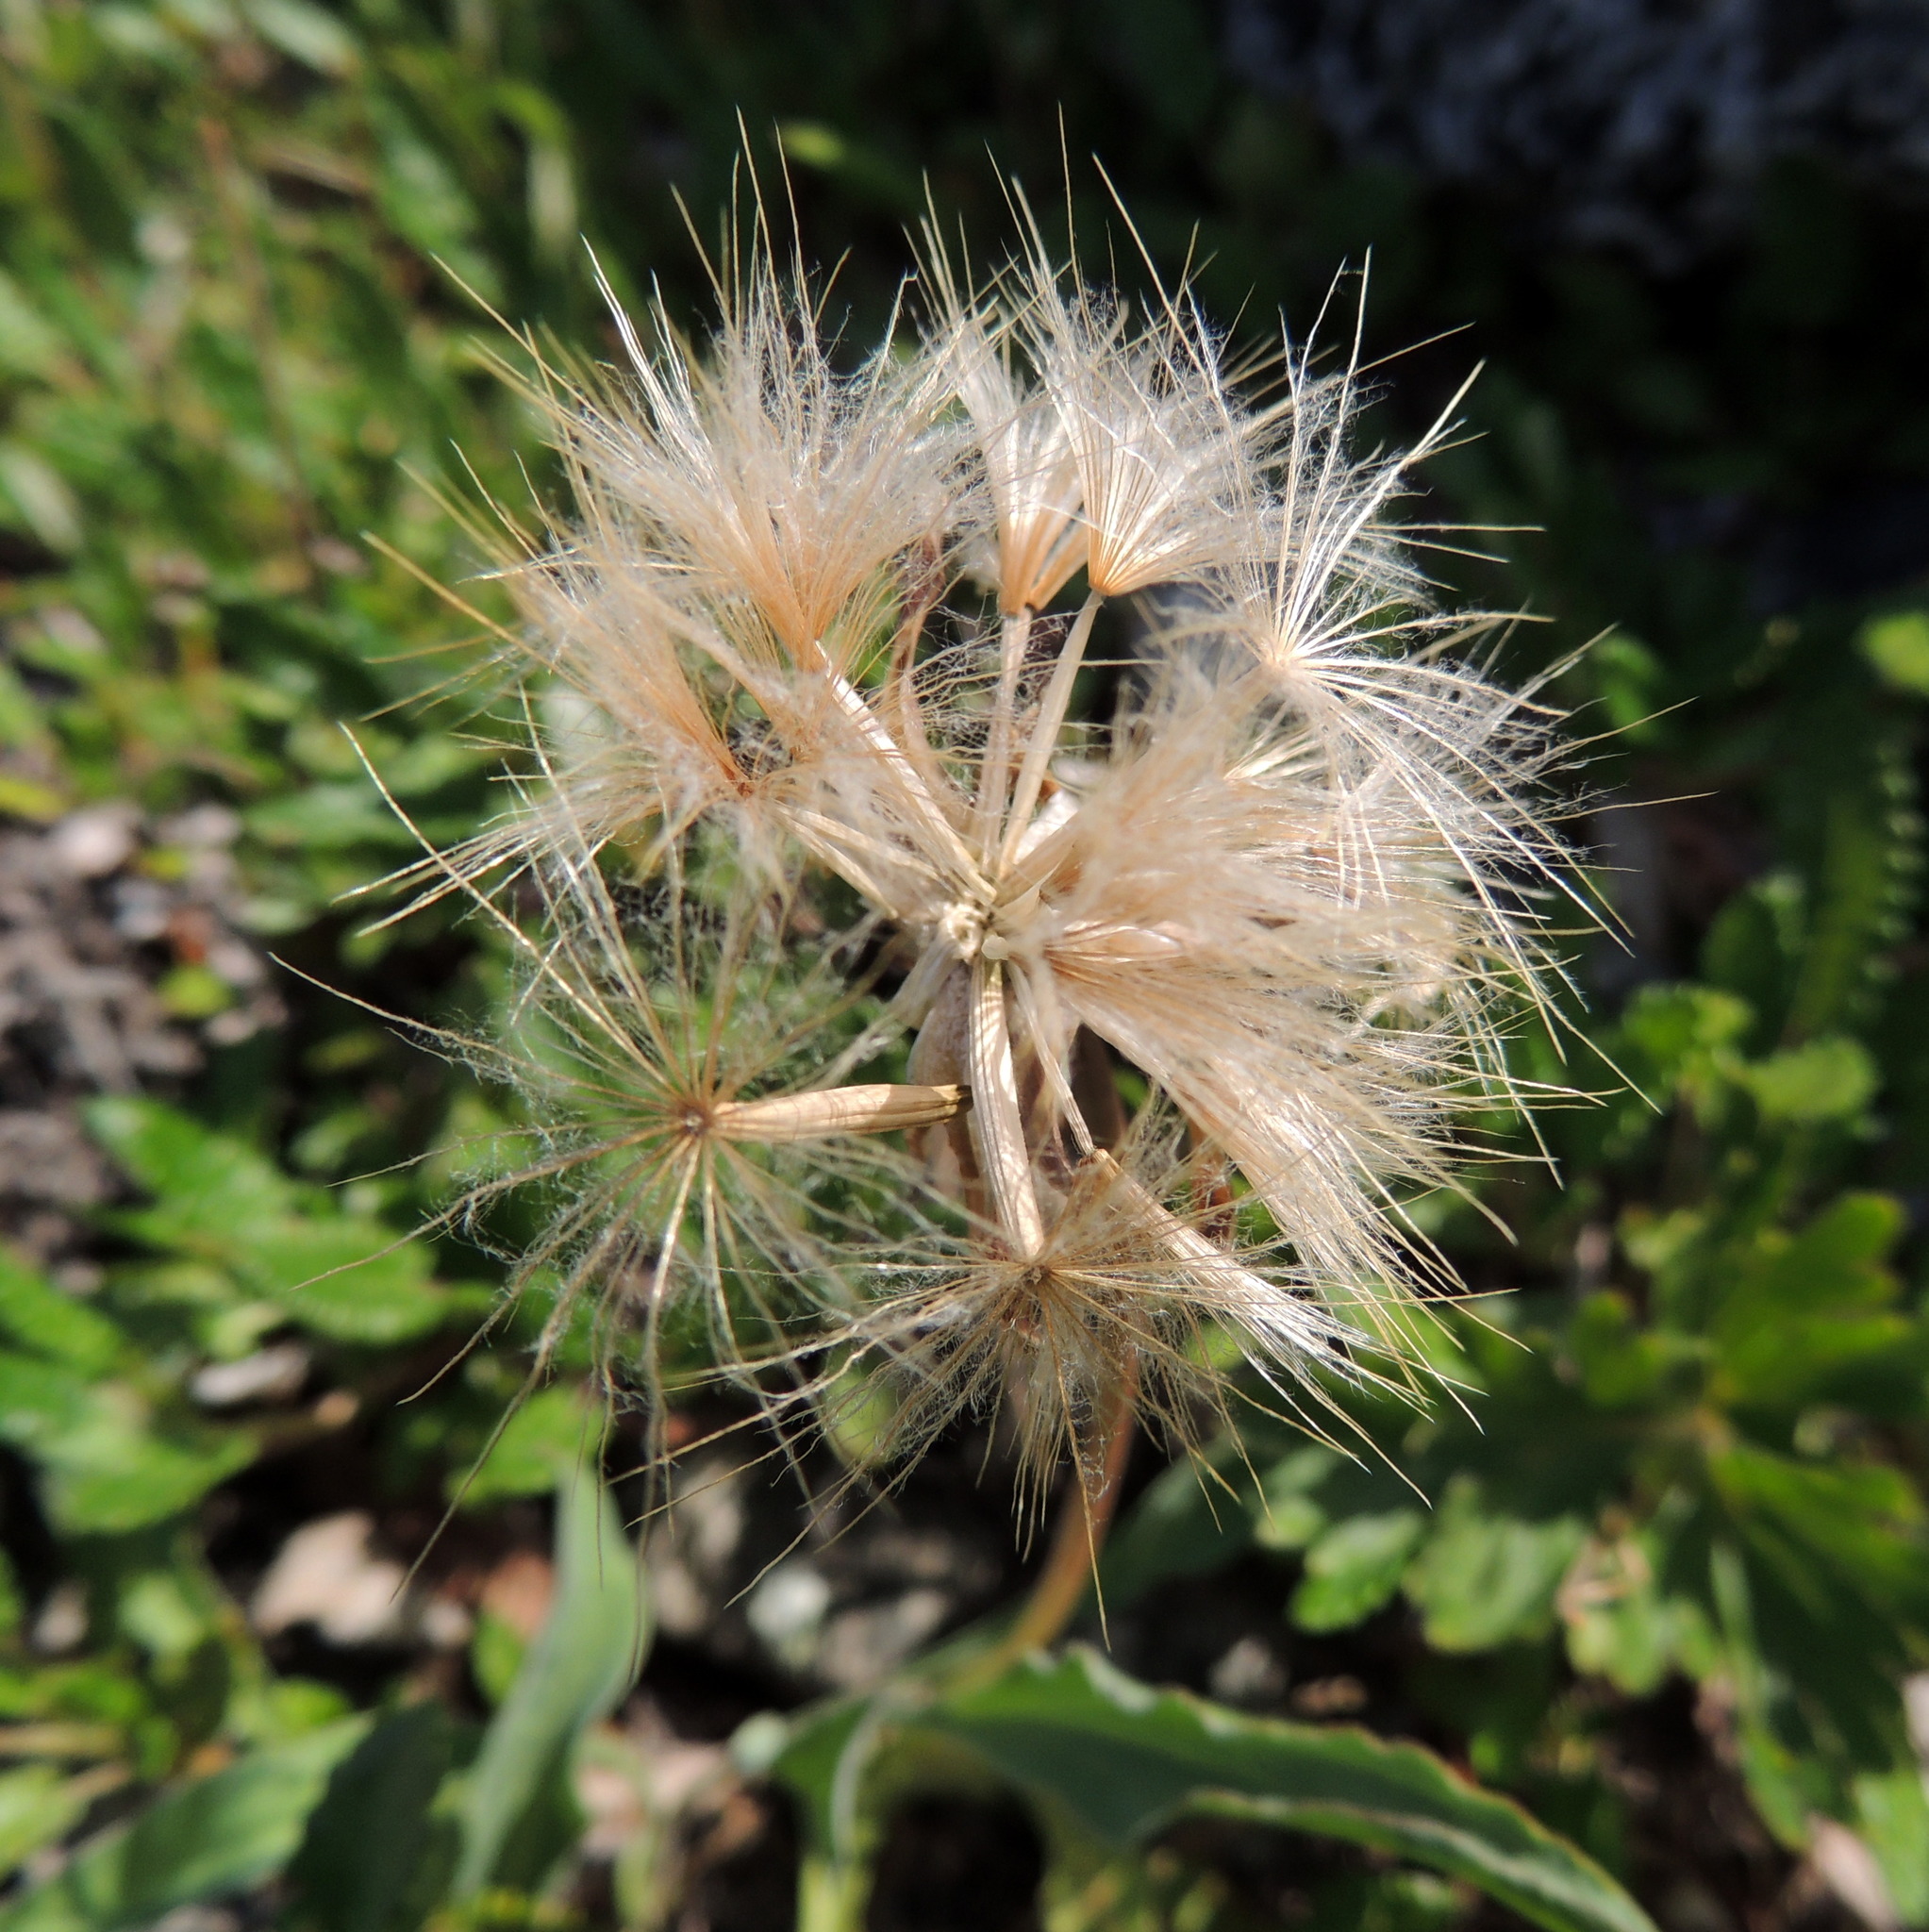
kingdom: Plantae
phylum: Tracheophyta
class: Magnoliopsida
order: Asterales
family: Asteraceae
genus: Scorzonera
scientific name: Scorzonera glabra
